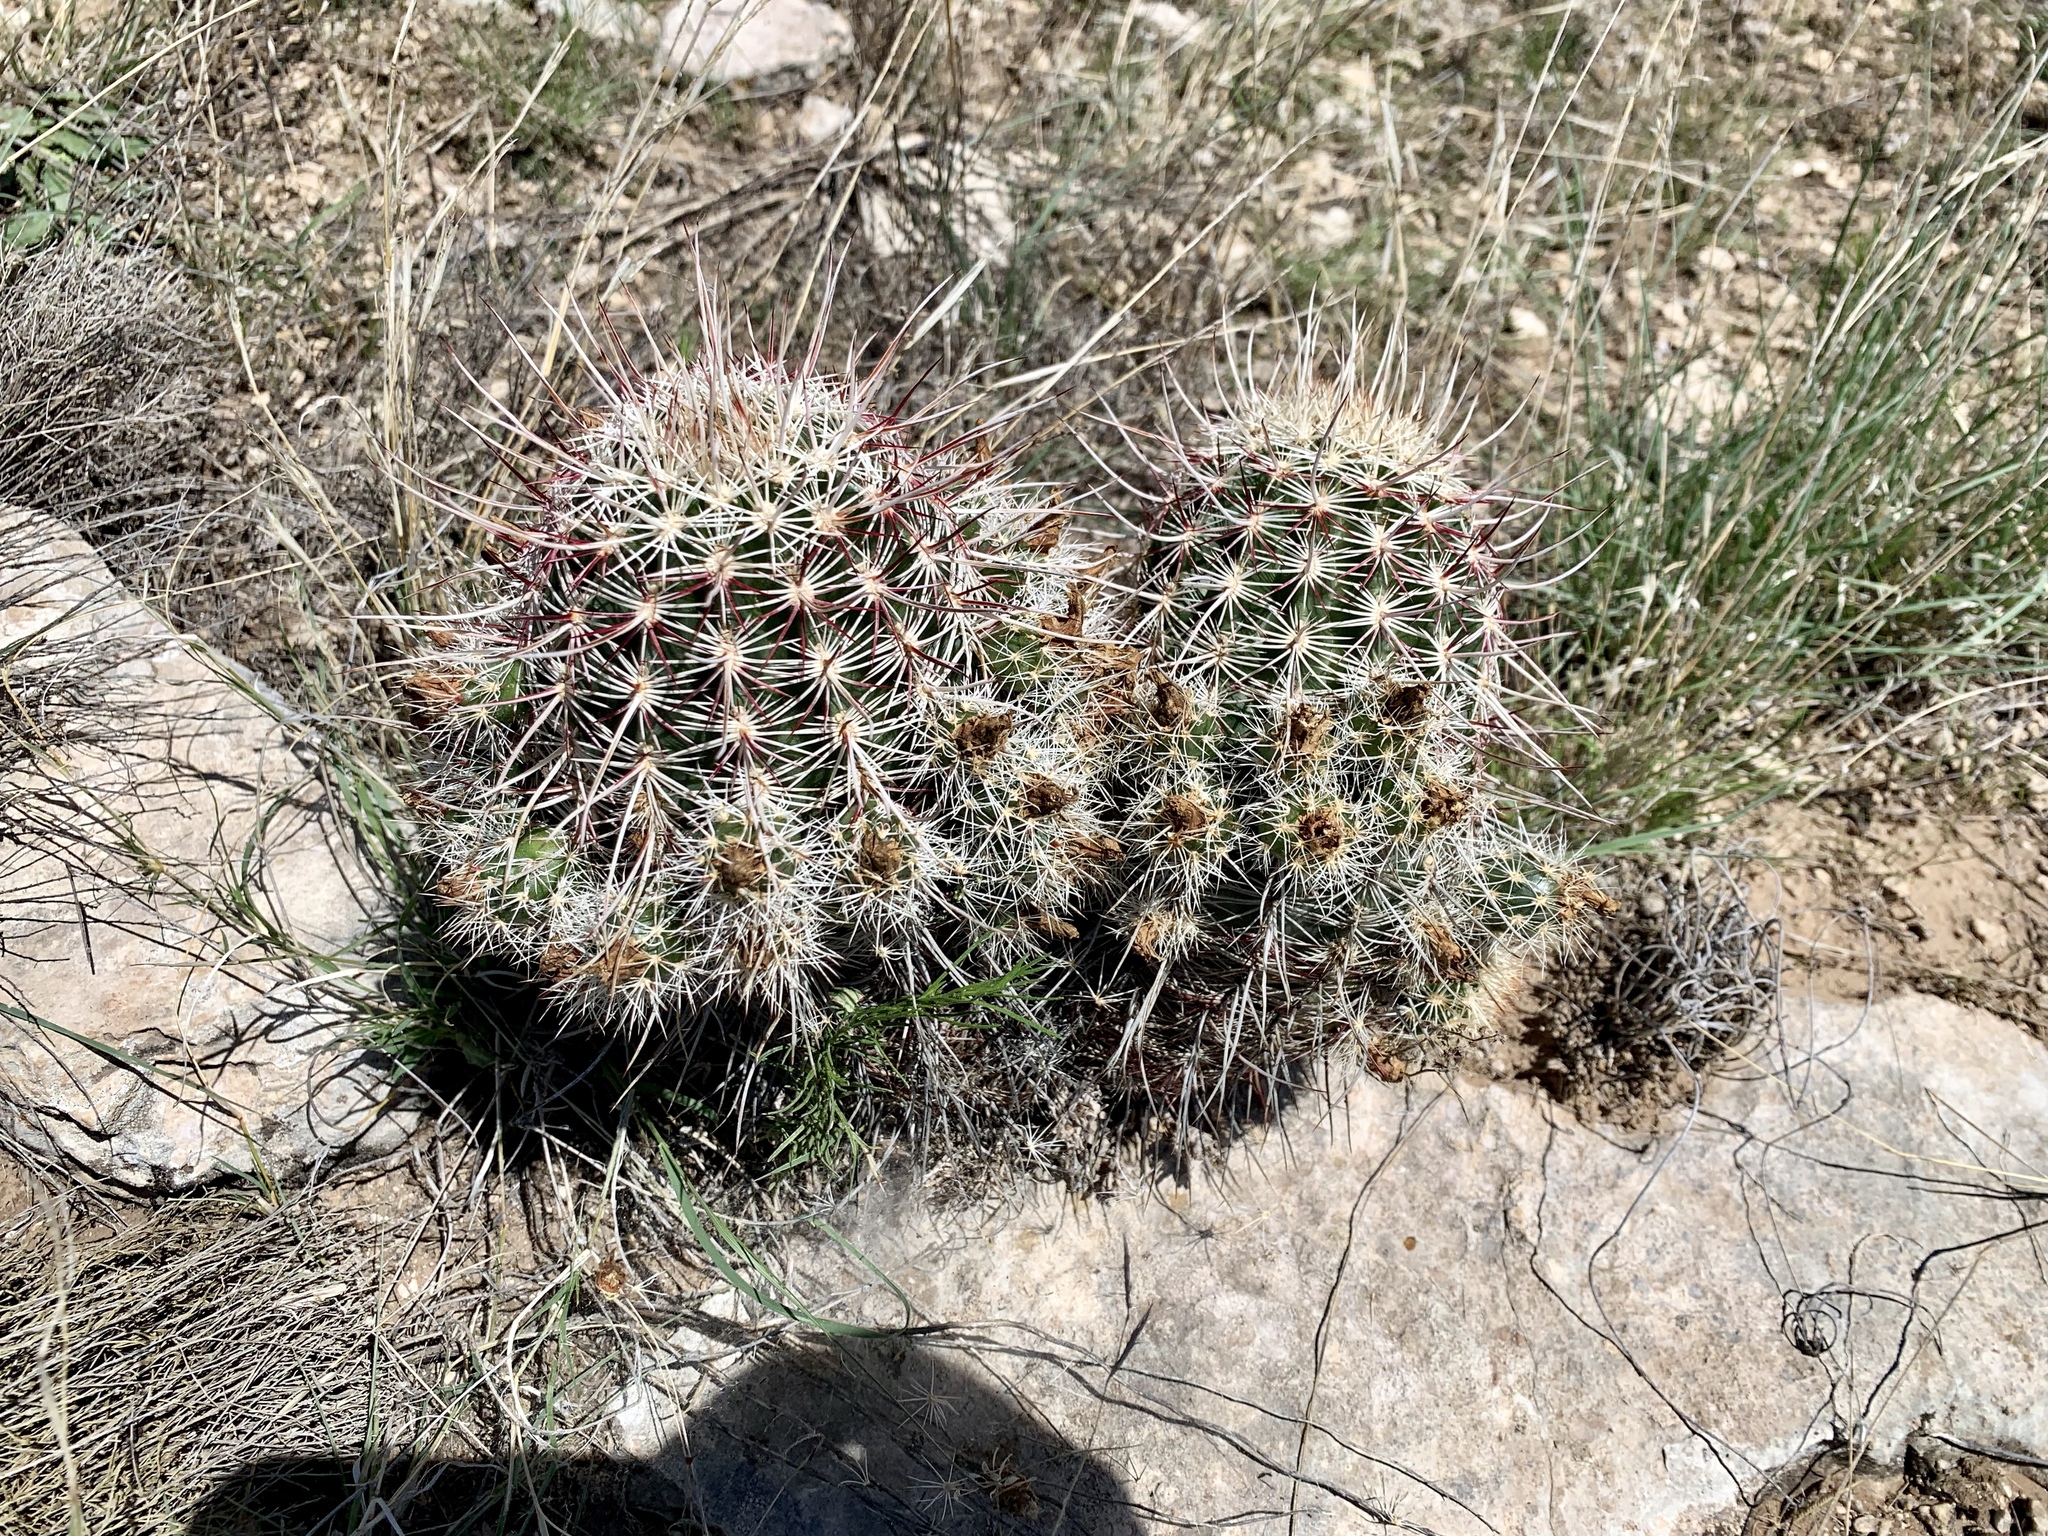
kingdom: Plantae
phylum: Tracheophyta
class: Magnoliopsida
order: Caryophyllales
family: Cactaceae
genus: Echinocereus
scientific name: Echinocereus viridiflorus
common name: Nylon hedgehog cactus
